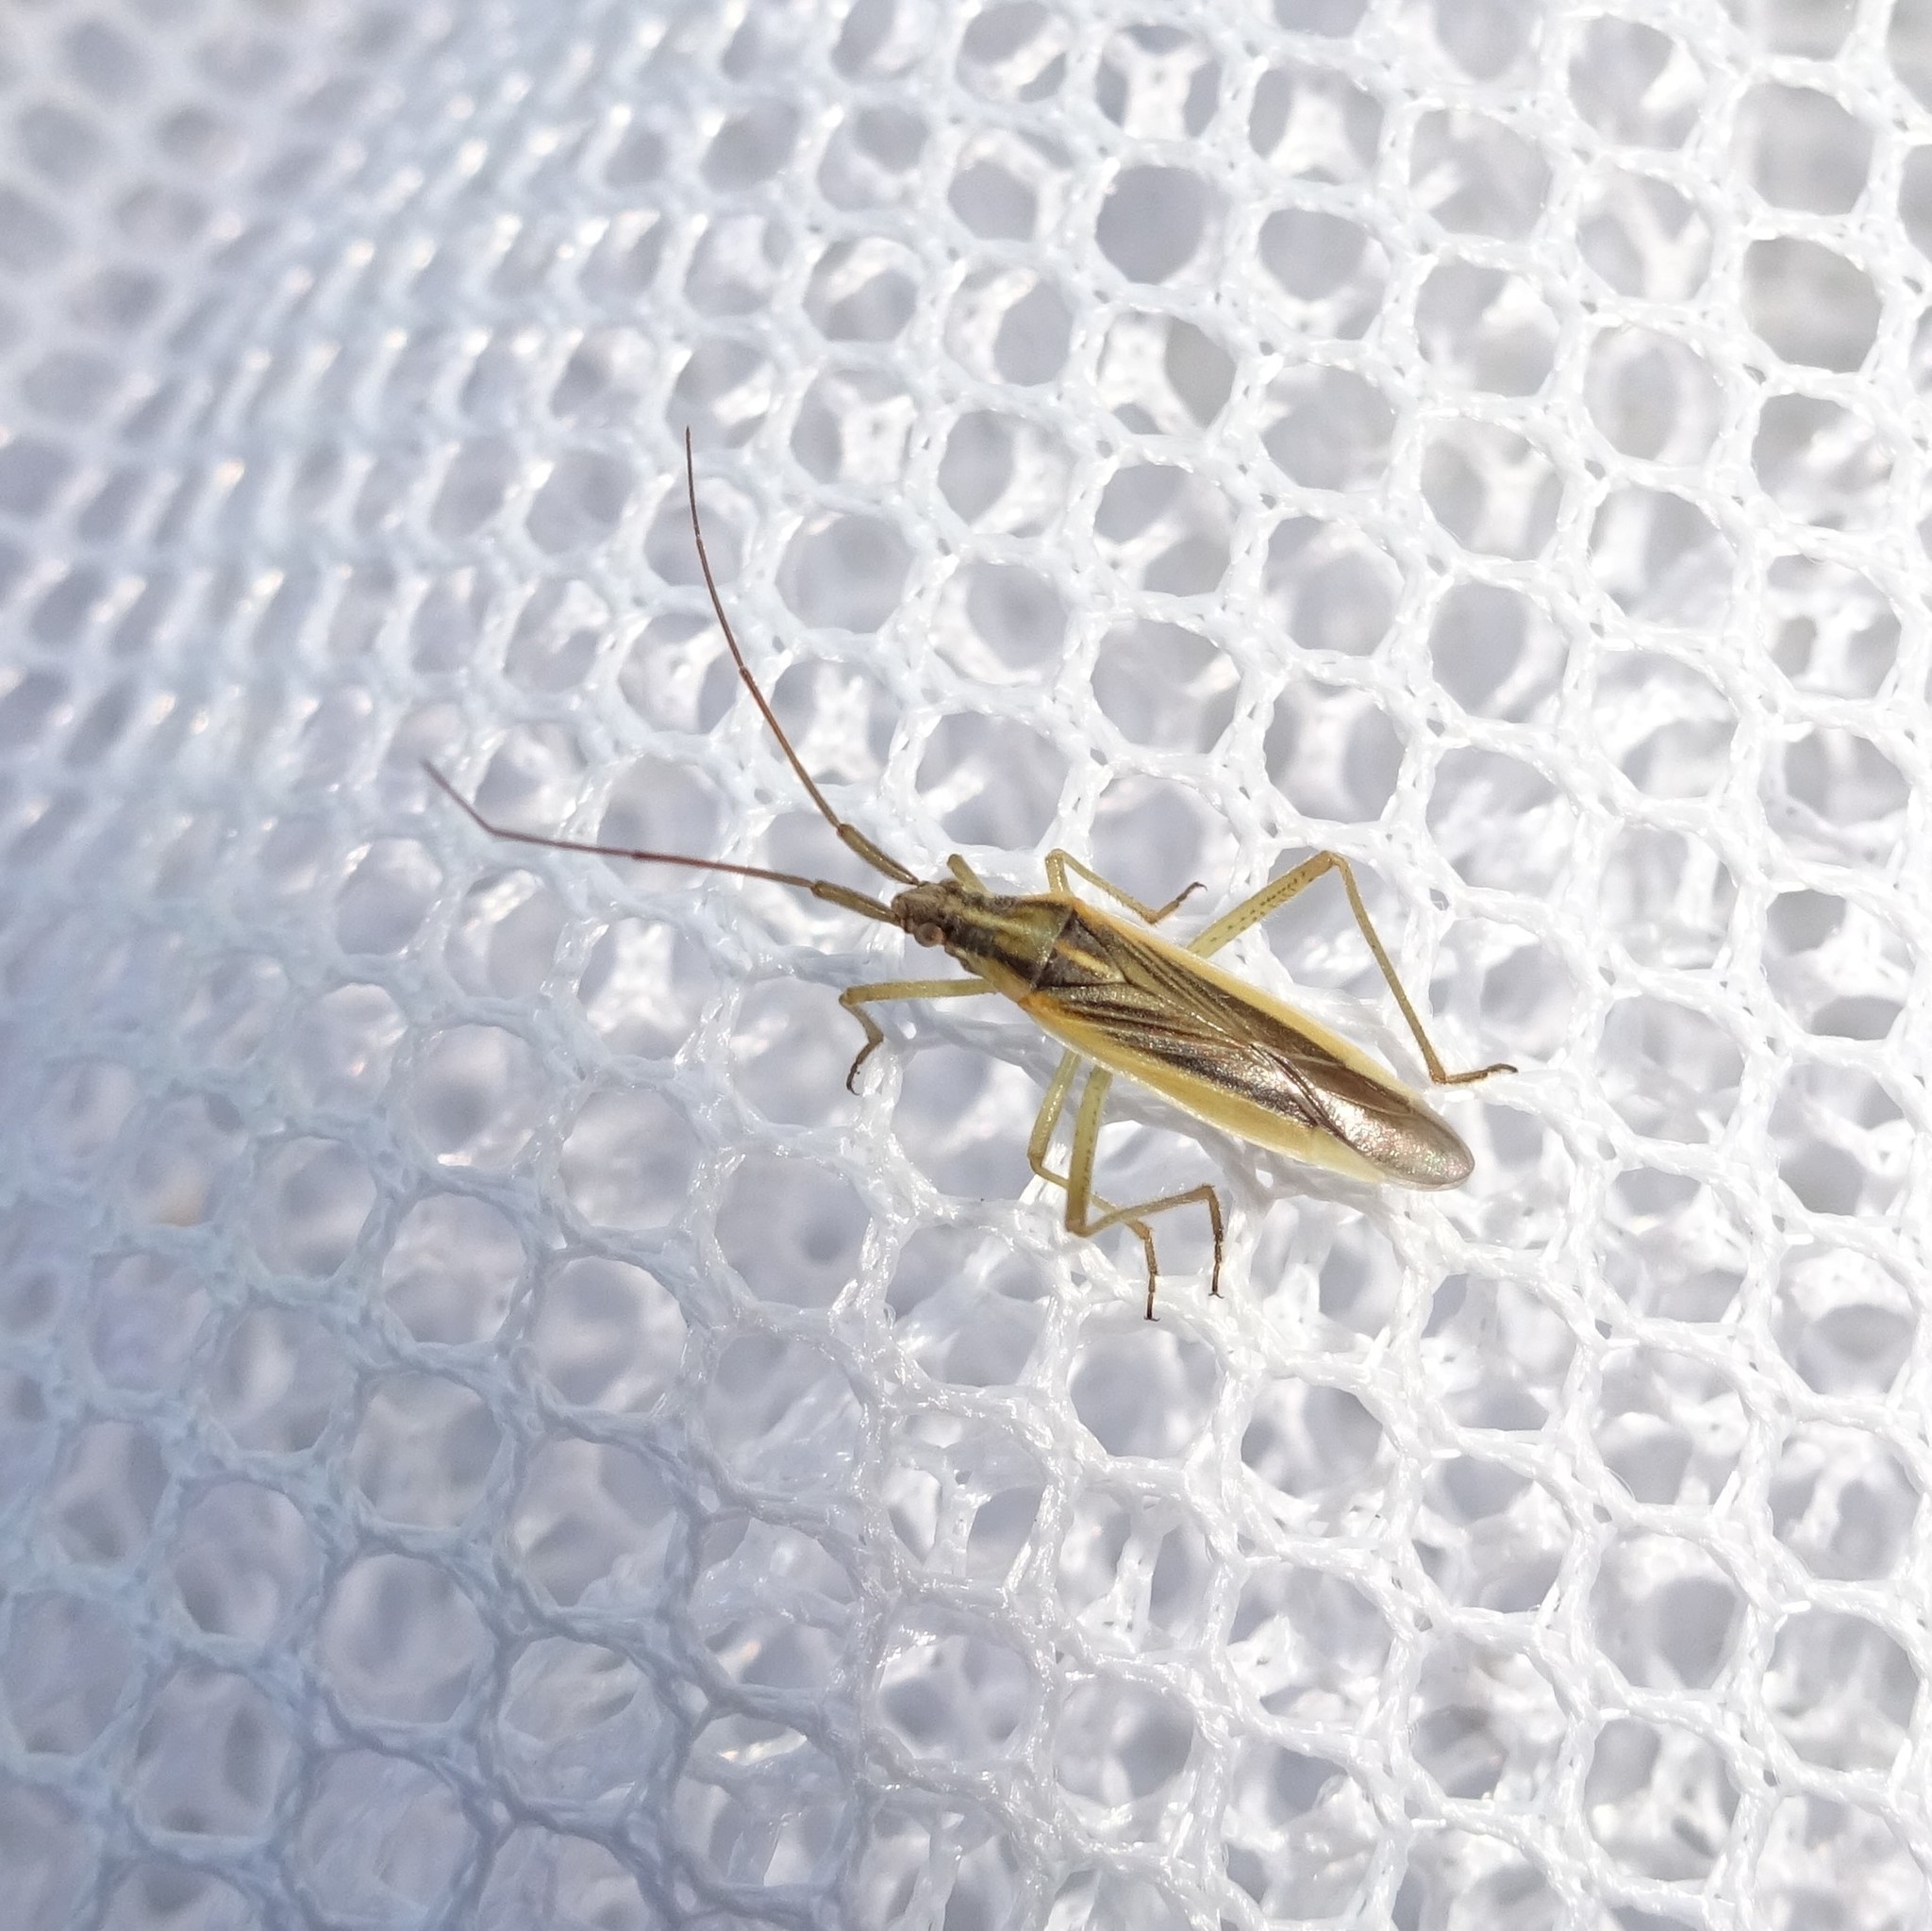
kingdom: Animalia
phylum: Arthropoda
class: Insecta
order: Hemiptera
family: Miridae
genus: Stenodema
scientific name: Stenodema laevigata
